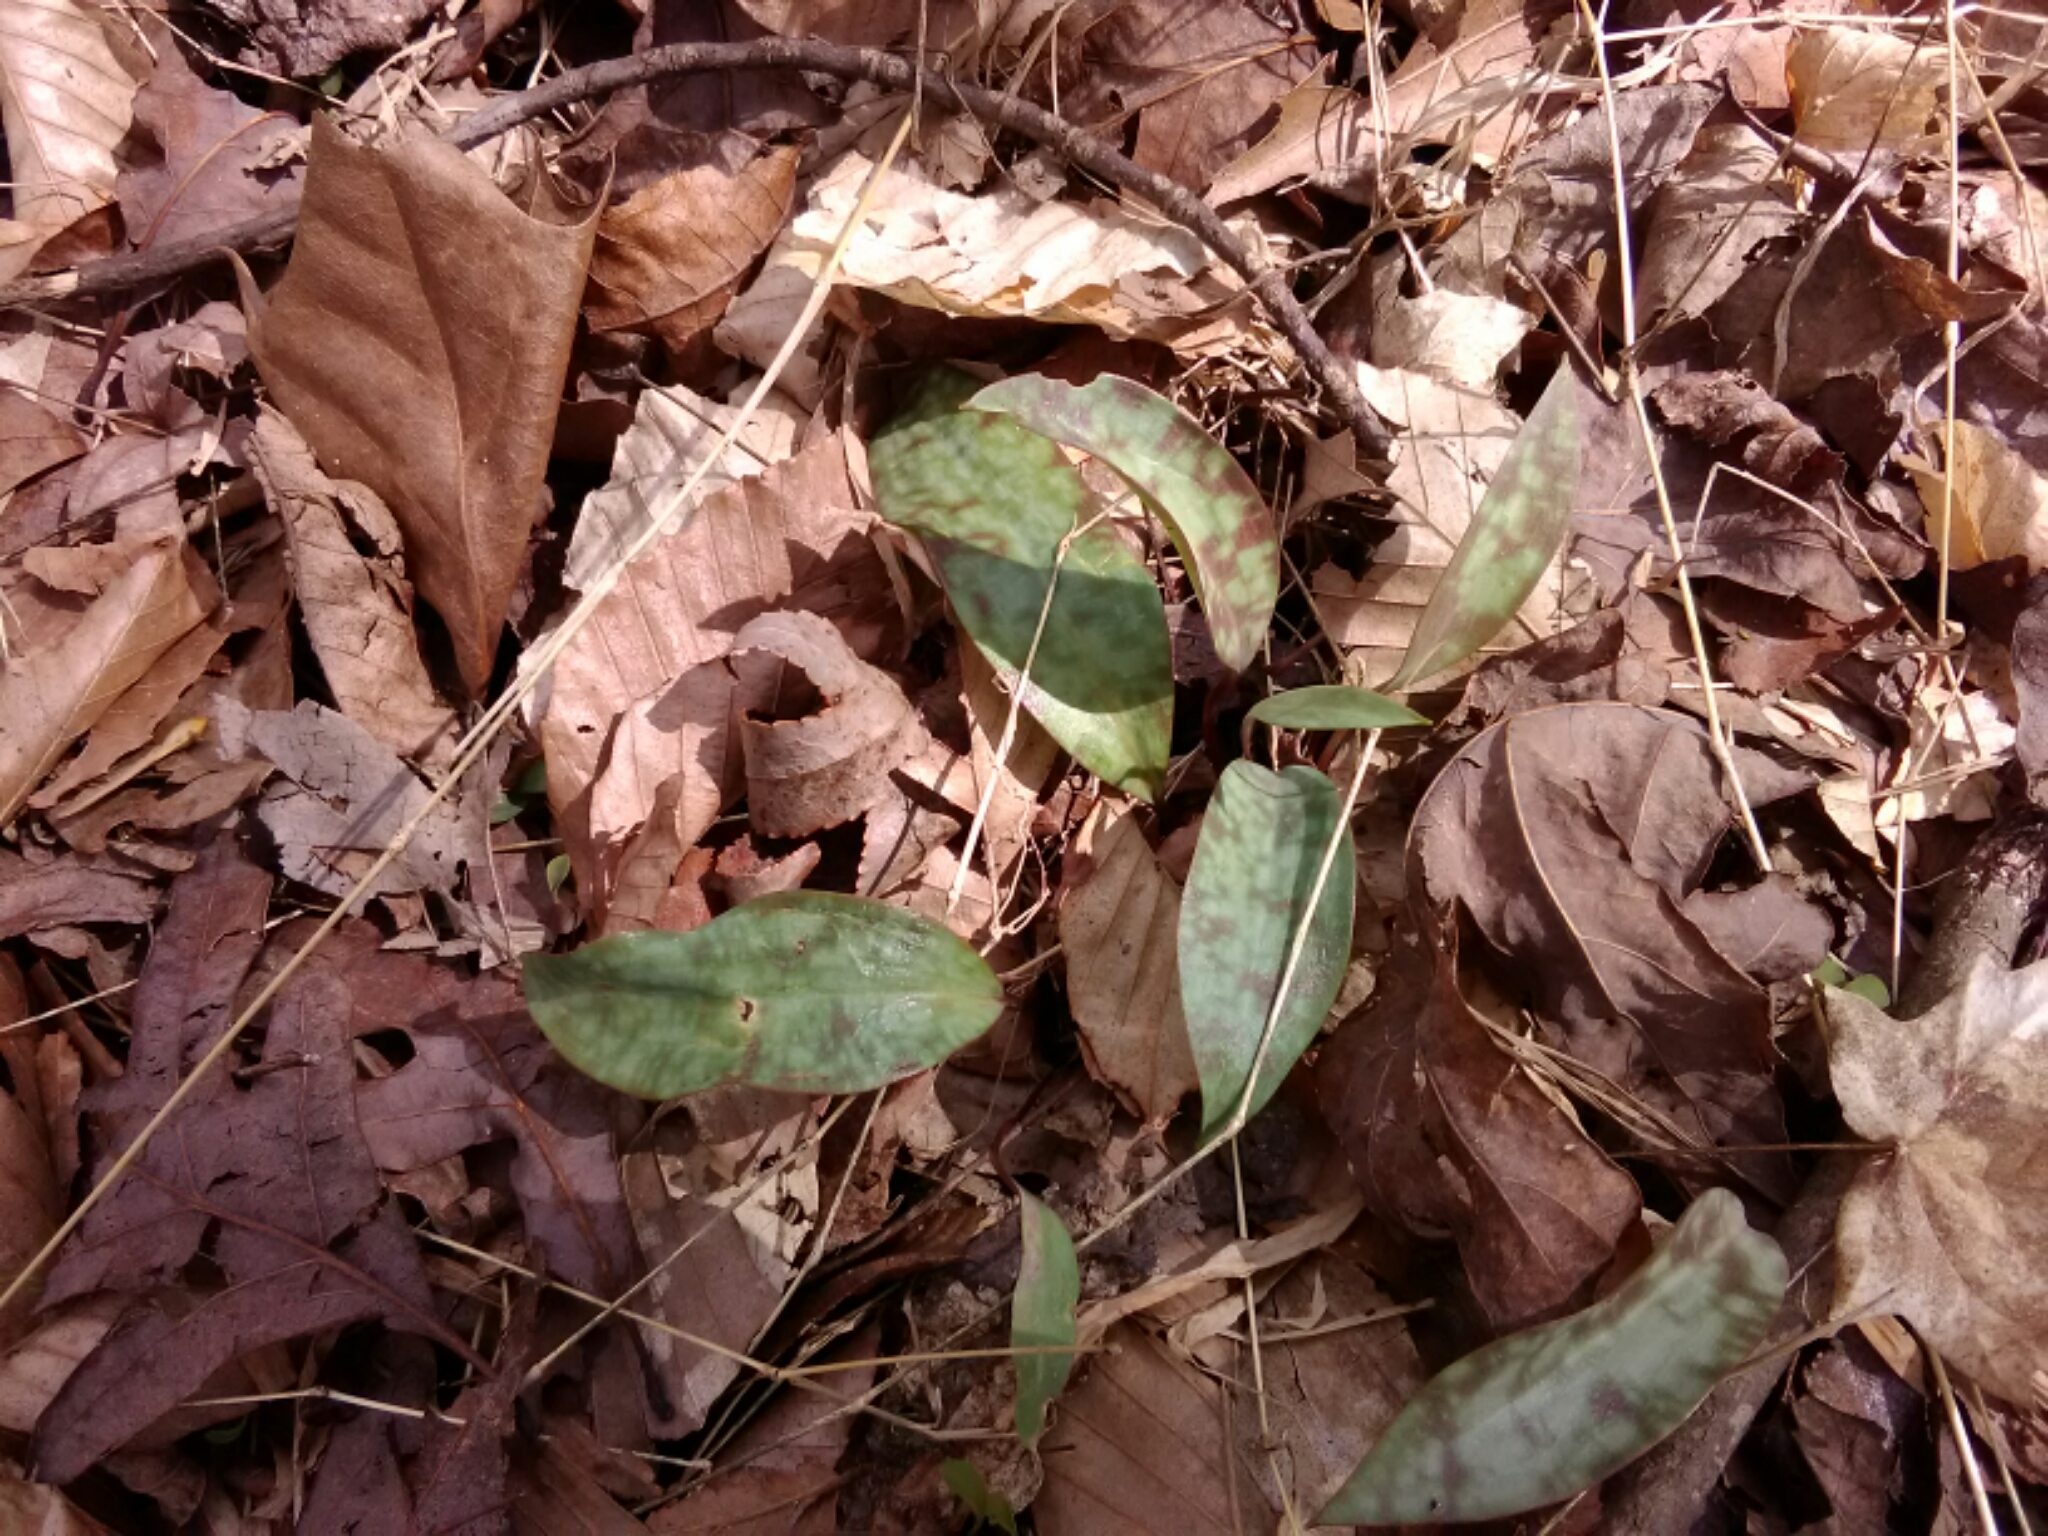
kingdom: Plantae
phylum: Tracheophyta
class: Liliopsida
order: Liliales
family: Liliaceae
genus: Erythronium
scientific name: Erythronium umbilicatum
